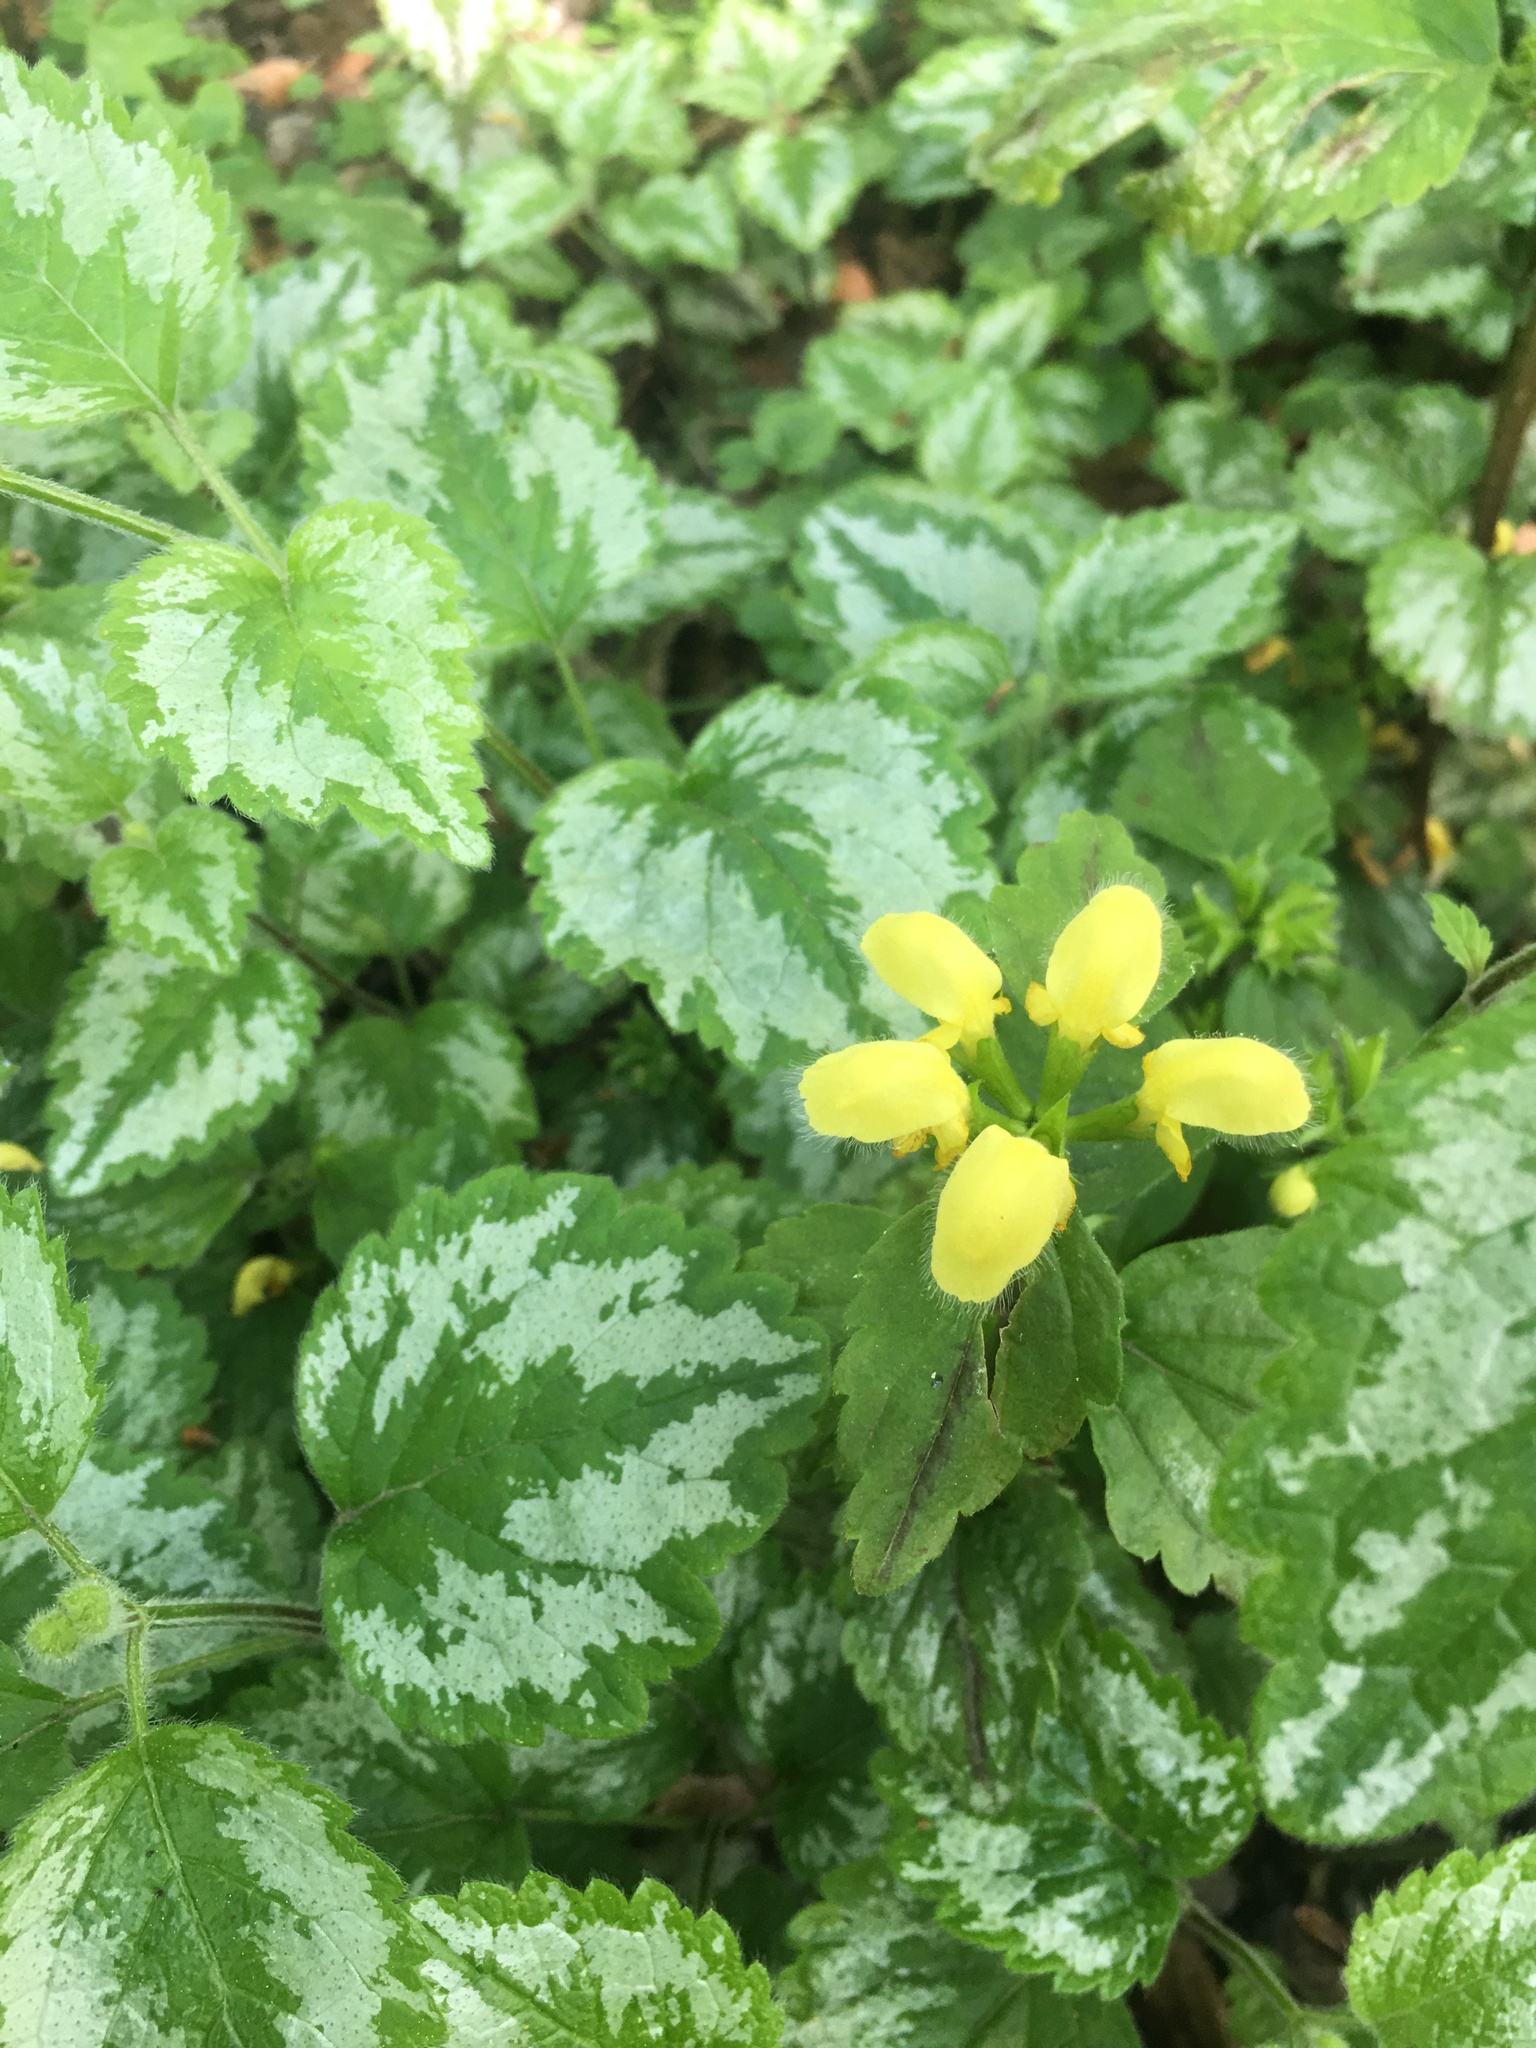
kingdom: Plantae
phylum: Tracheophyta
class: Magnoliopsida
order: Lamiales
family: Lamiaceae
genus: Lamium
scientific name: Lamium galeobdolon
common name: Yellow archangel
